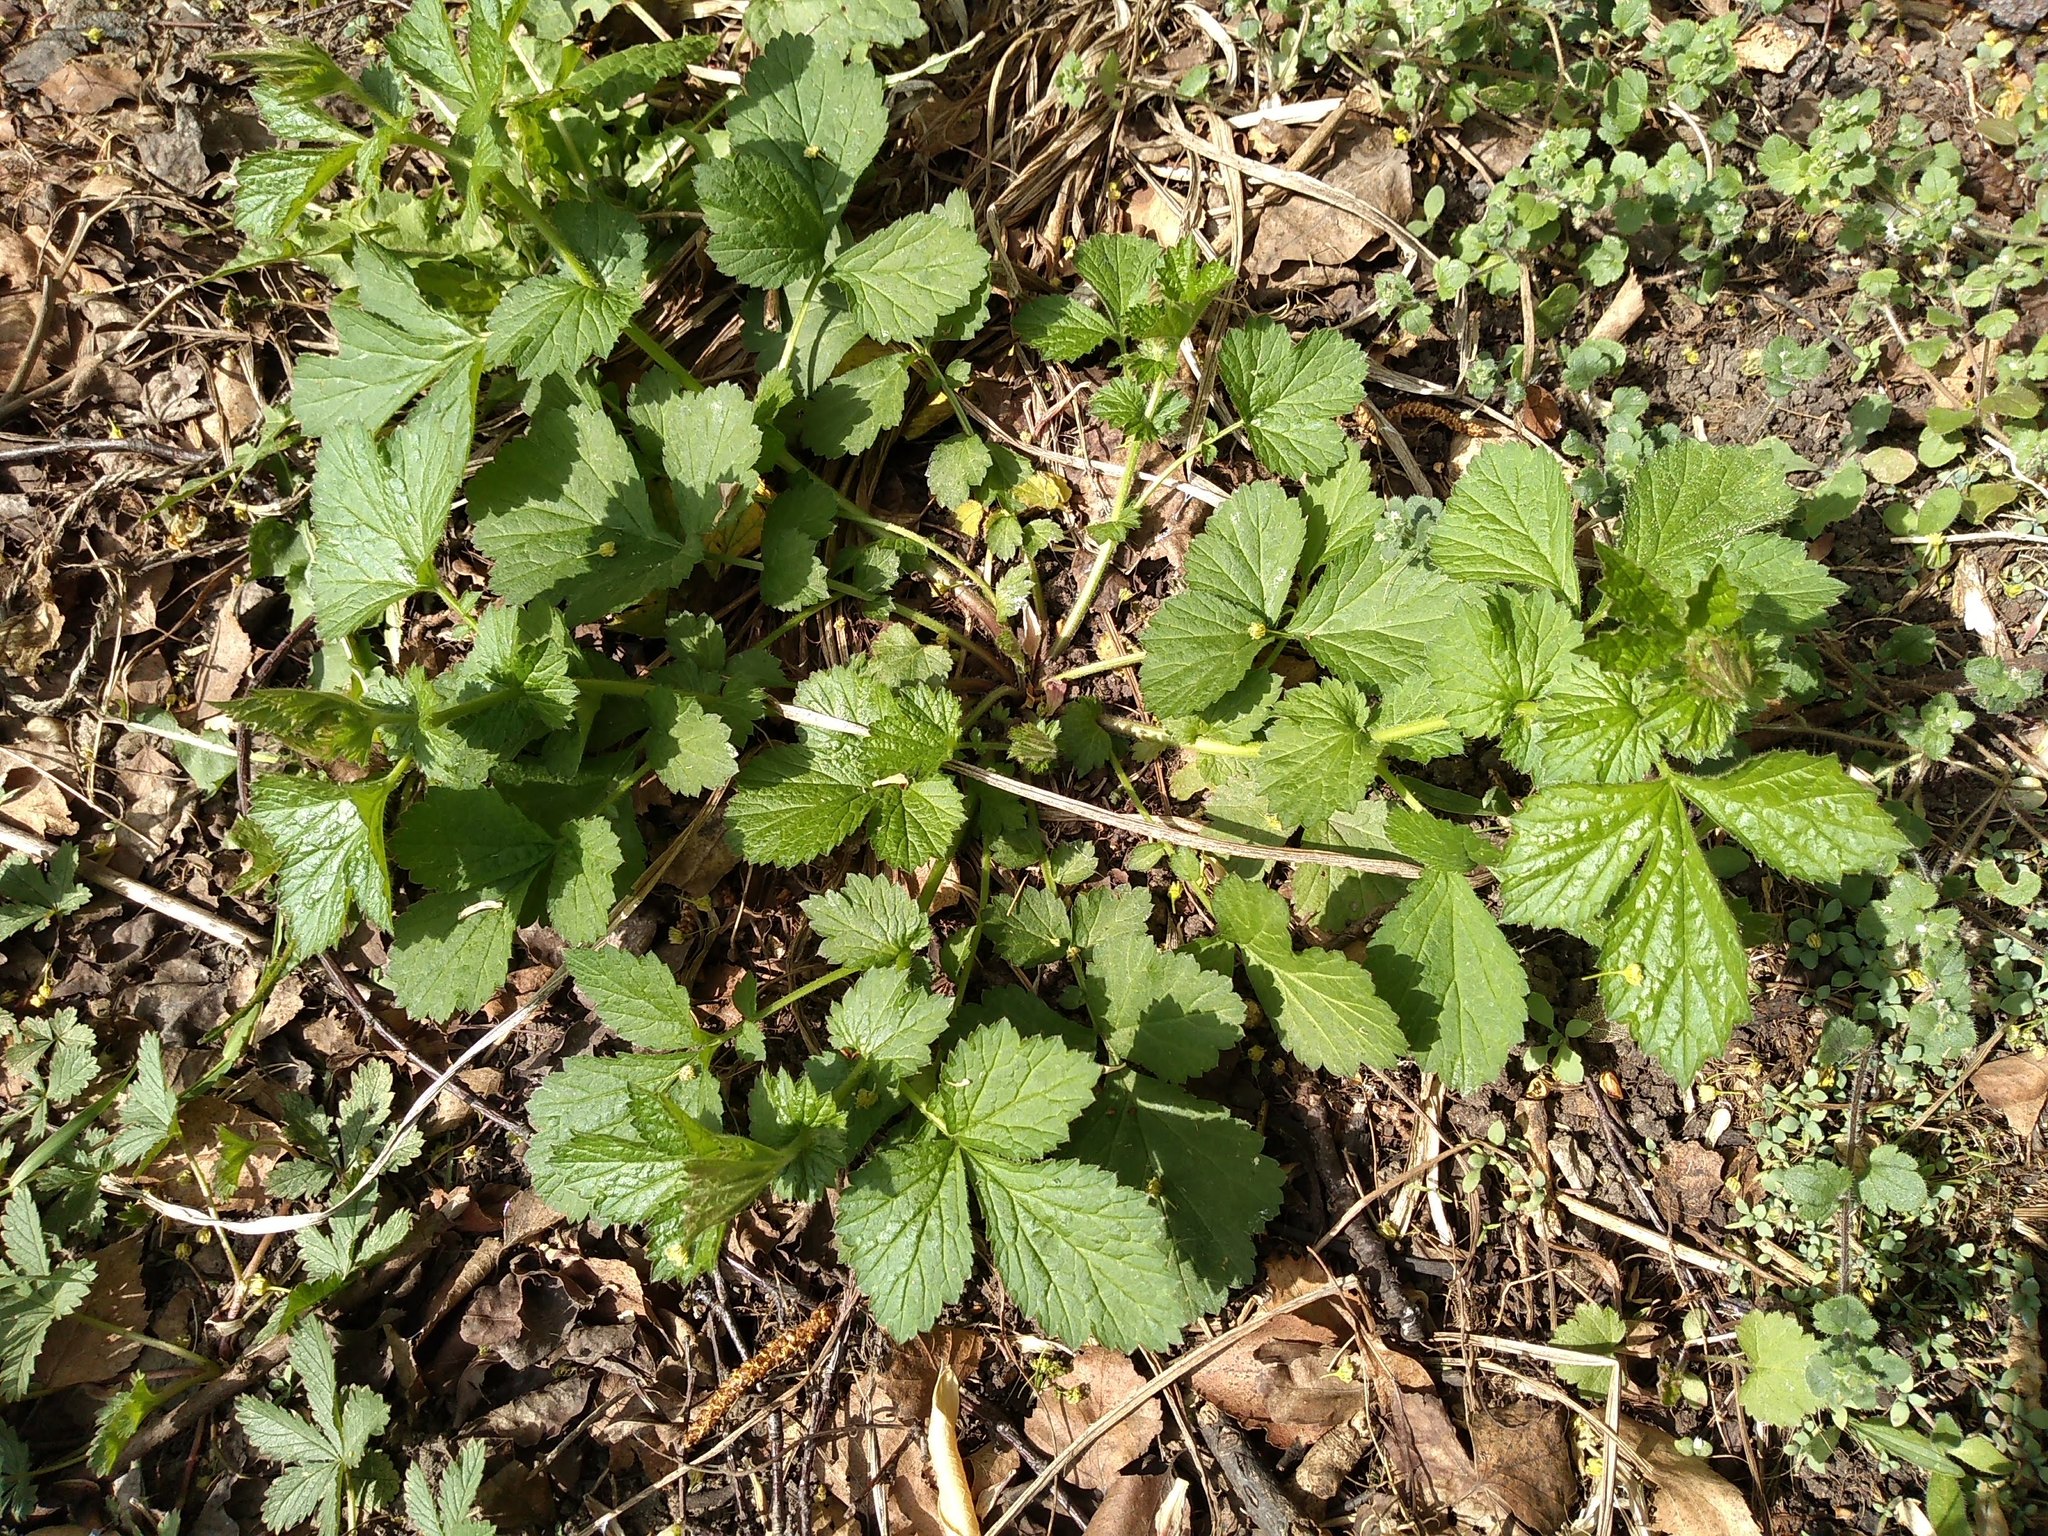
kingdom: Plantae
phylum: Tracheophyta
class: Magnoliopsida
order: Rosales
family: Rosaceae
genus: Geum
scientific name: Geum urbanum
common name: Wood avens
